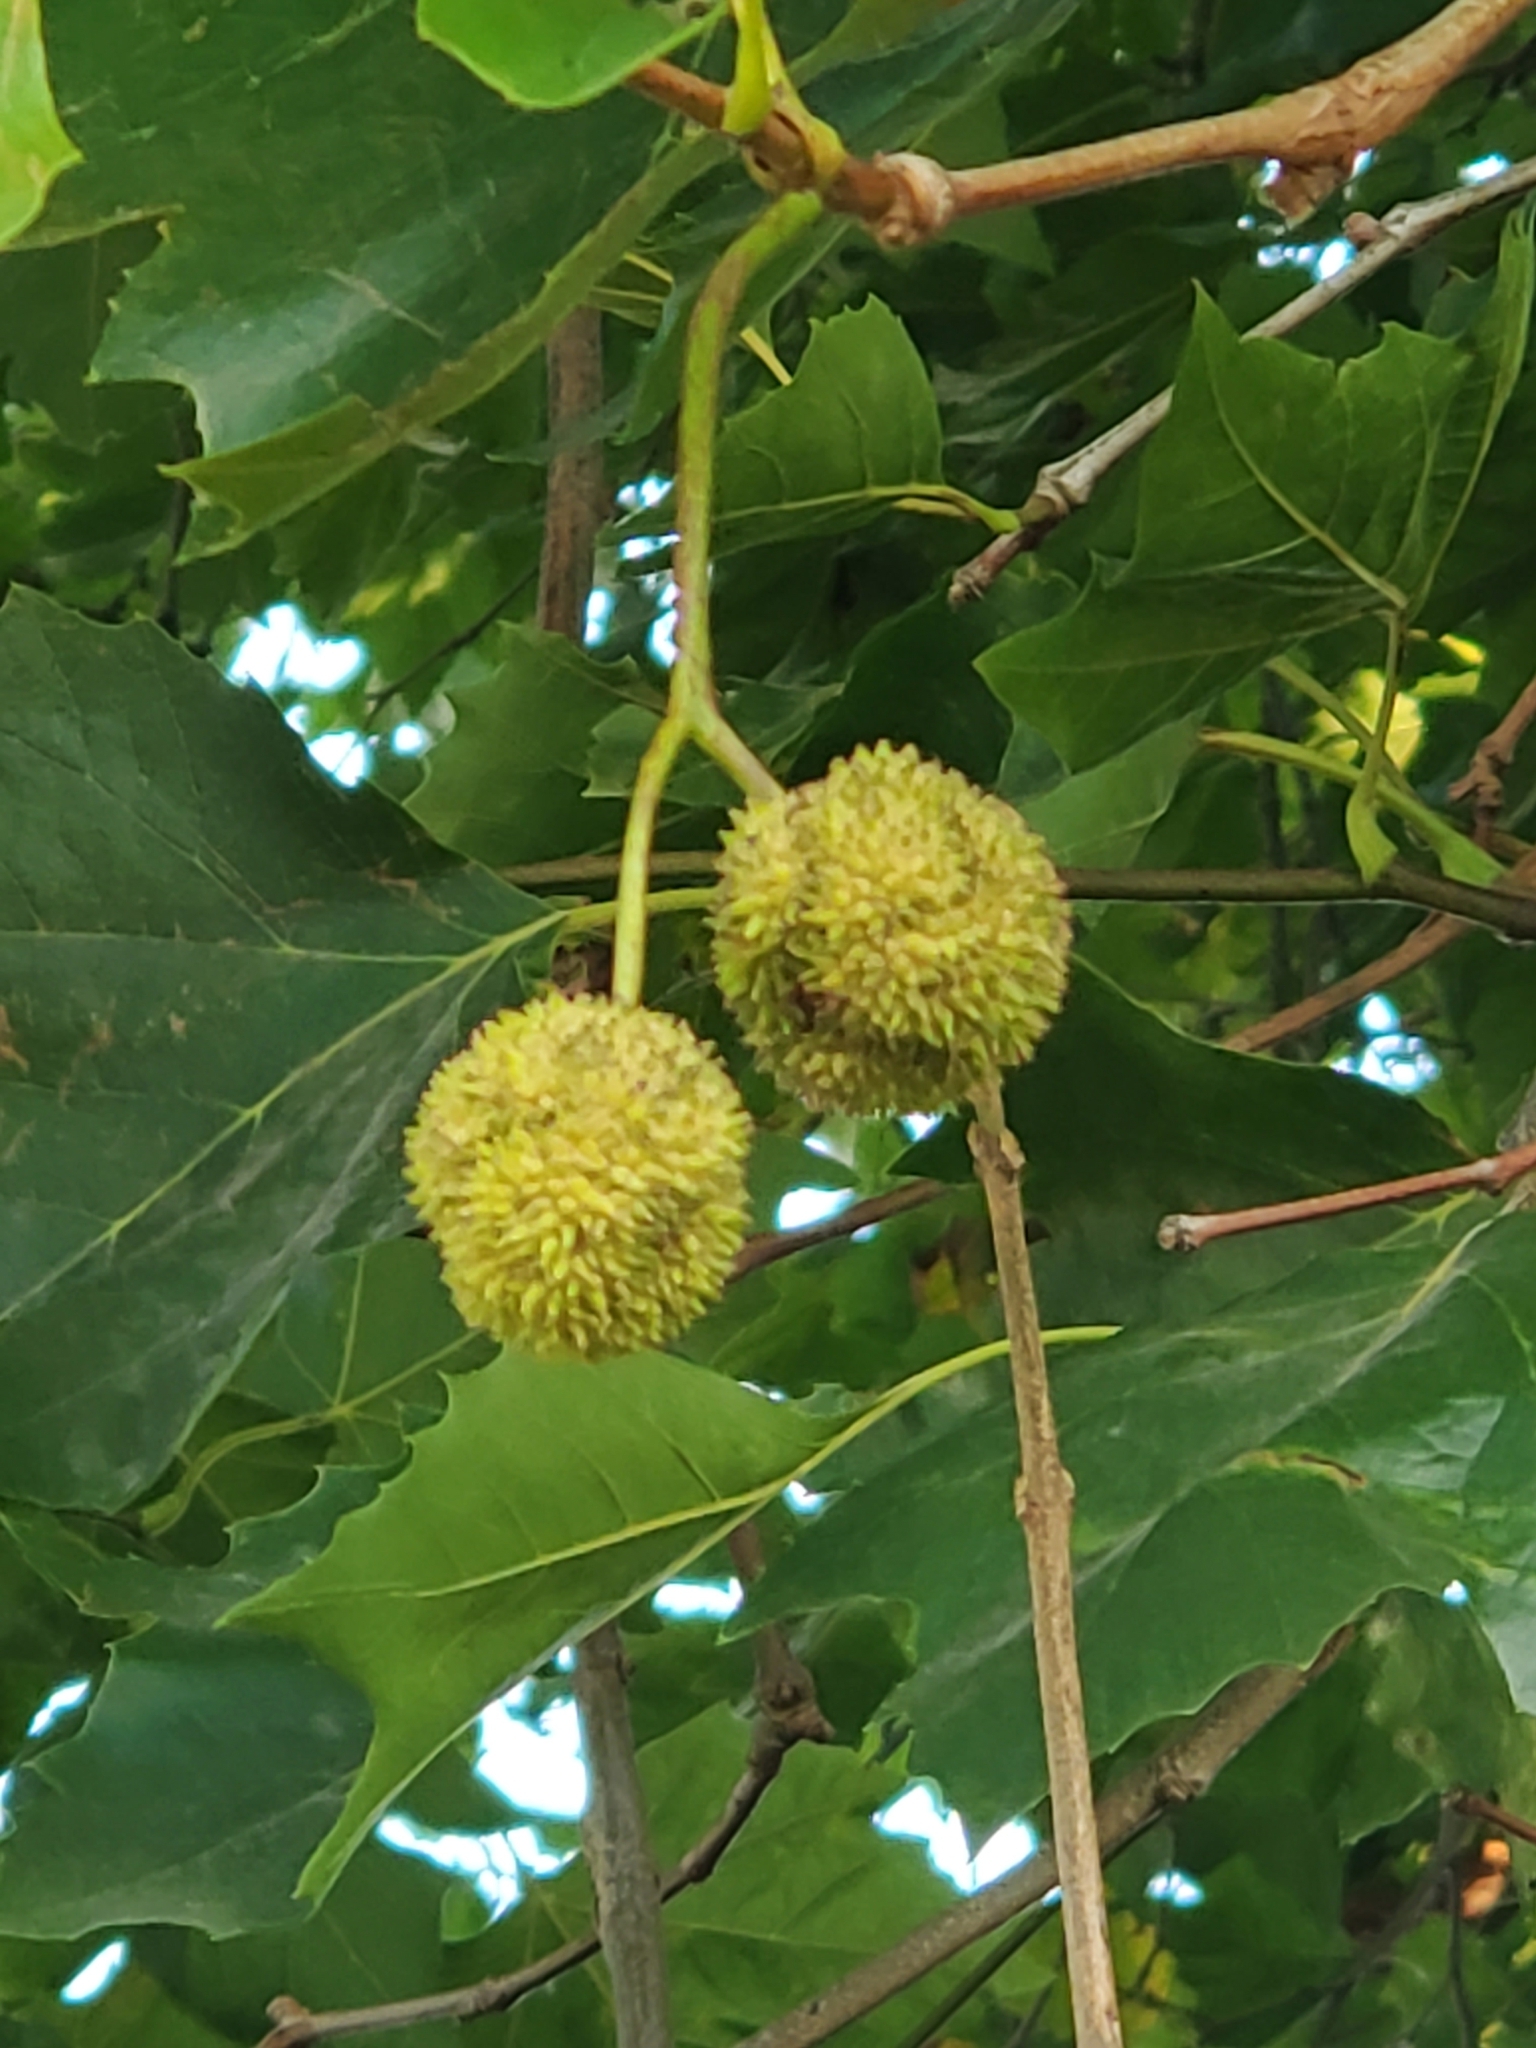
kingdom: Plantae
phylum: Tracheophyta
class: Magnoliopsida
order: Proteales
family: Platanaceae
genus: Platanus
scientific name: Platanus occidentalis
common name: American sycamore
